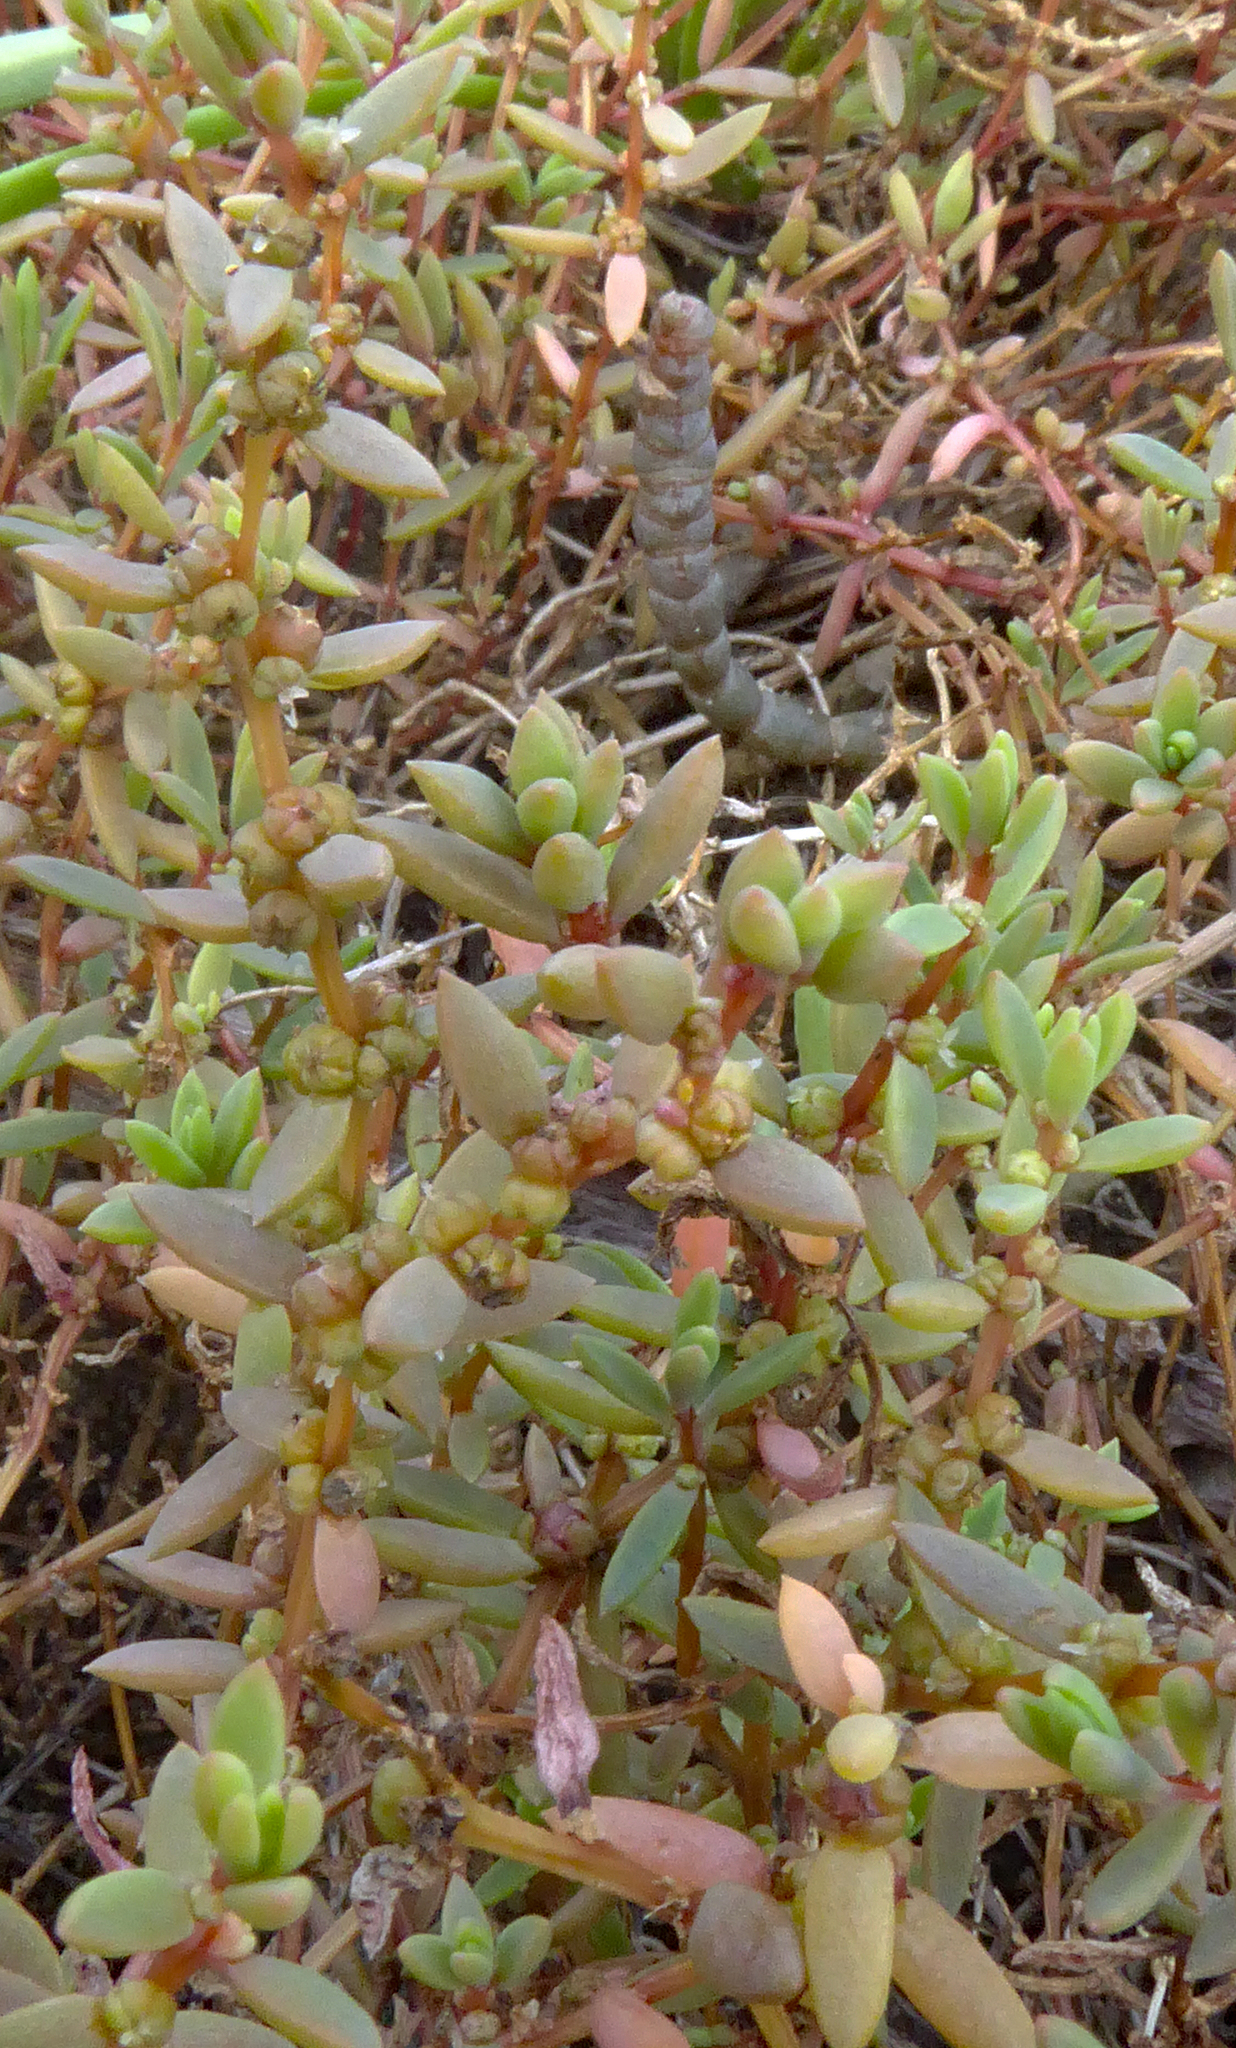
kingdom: Plantae
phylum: Tracheophyta
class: Magnoliopsida
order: Caryophyllales
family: Amaranthaceae
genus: Suaeda
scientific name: Suaeda novae-zelandiae
